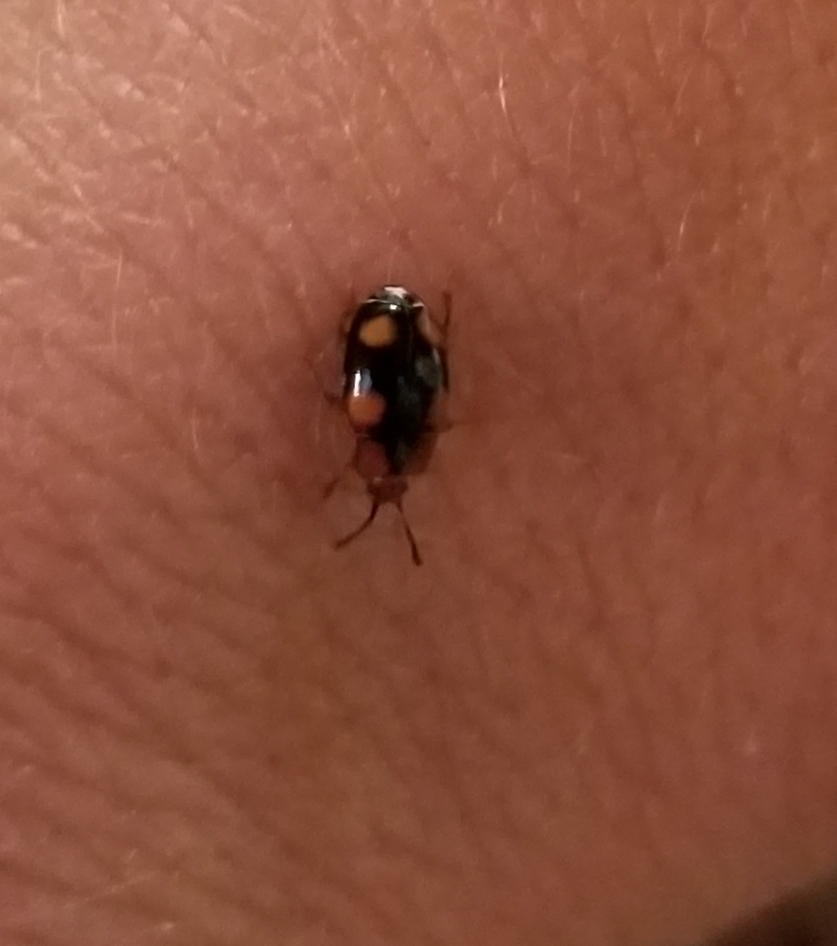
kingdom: Animalia
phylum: Arthropoda
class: Insecta
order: Coleoptera
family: Endomychidae
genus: Mycetina
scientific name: Mycetina hornii
